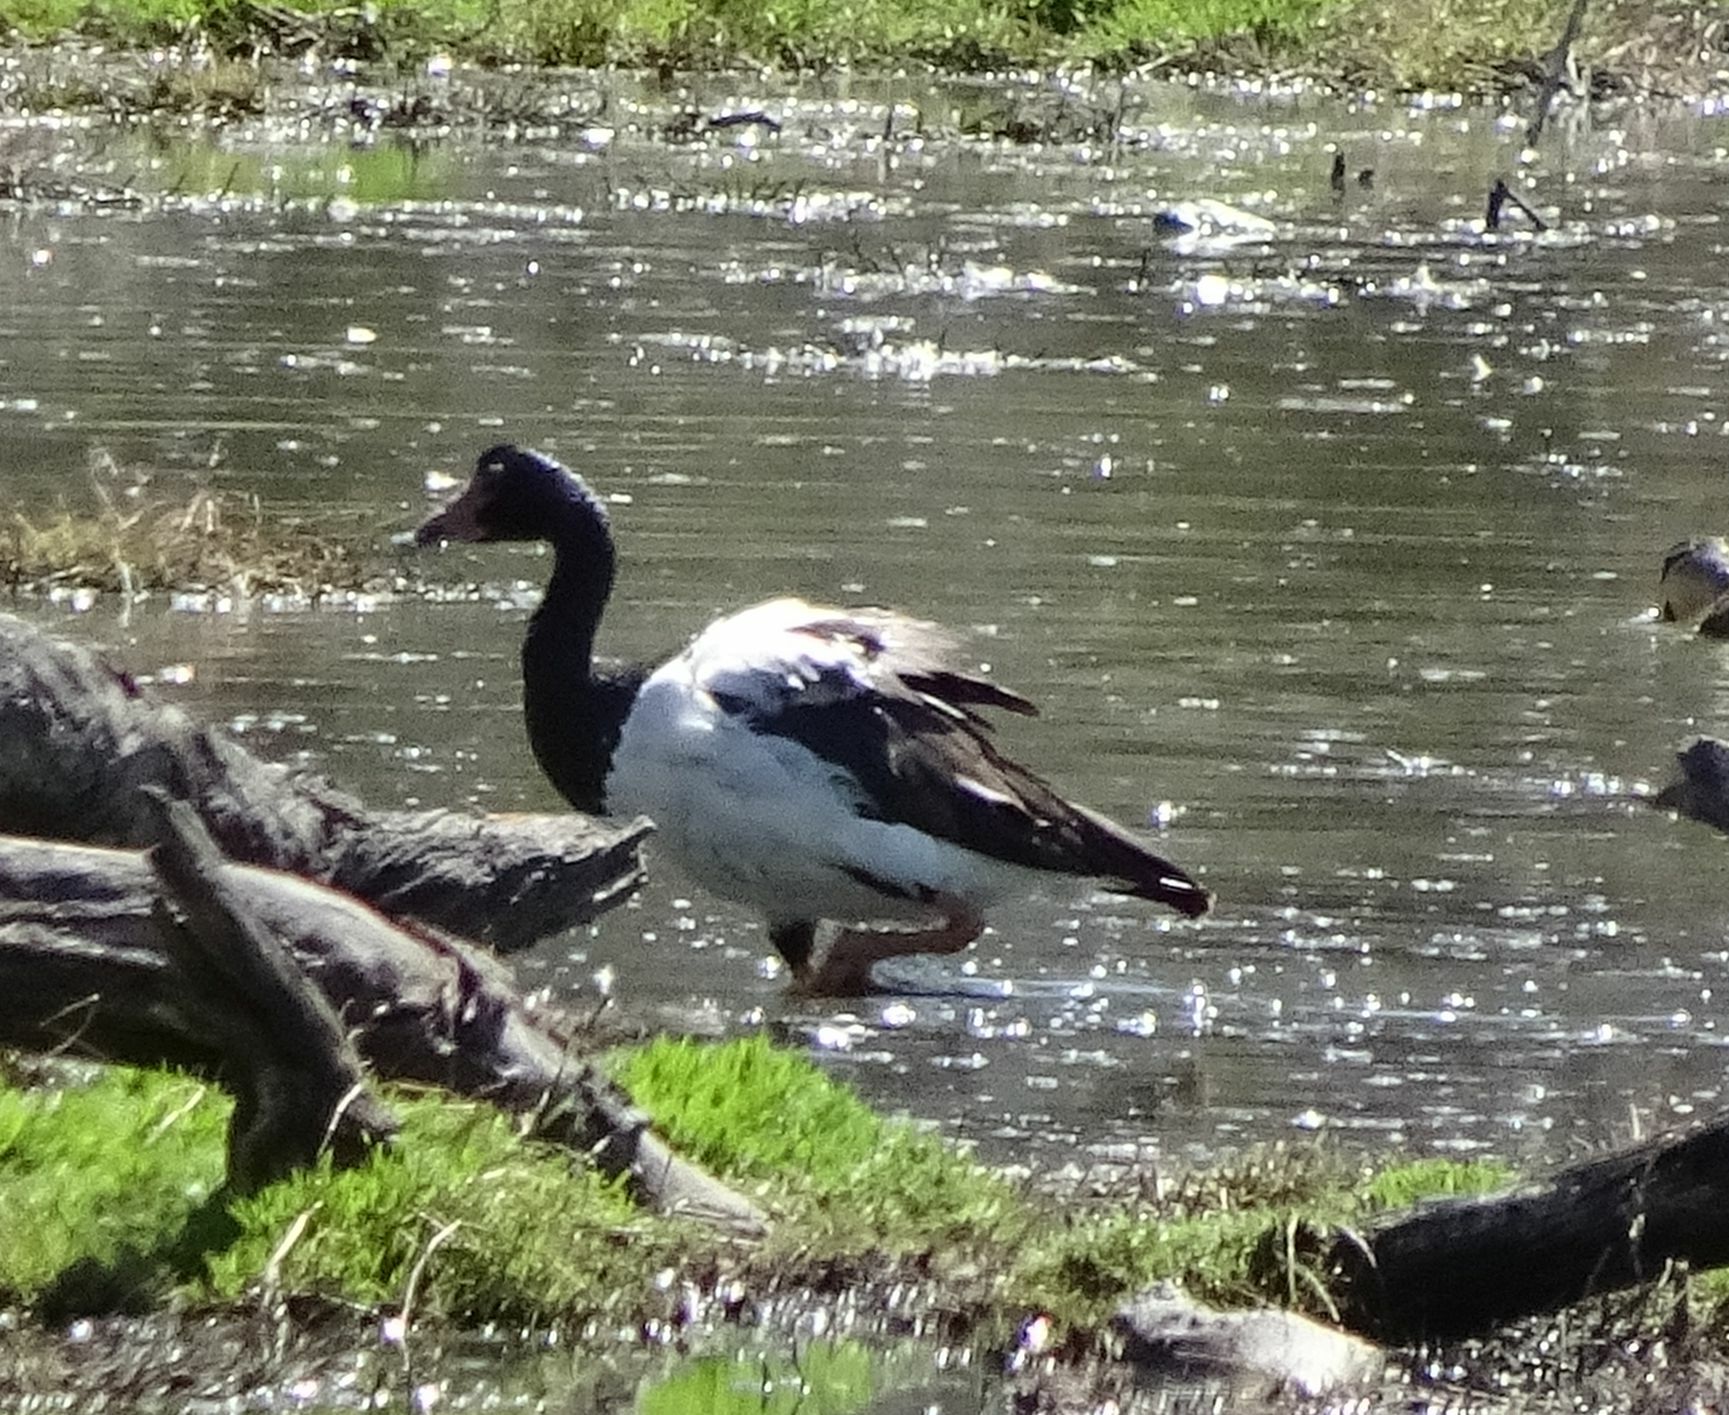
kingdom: Animalia
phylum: Chordata
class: Aves
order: Anseriformes
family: Anseranatidae
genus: Anseranas
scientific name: Anseranas semipalmata
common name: Magpie goose
